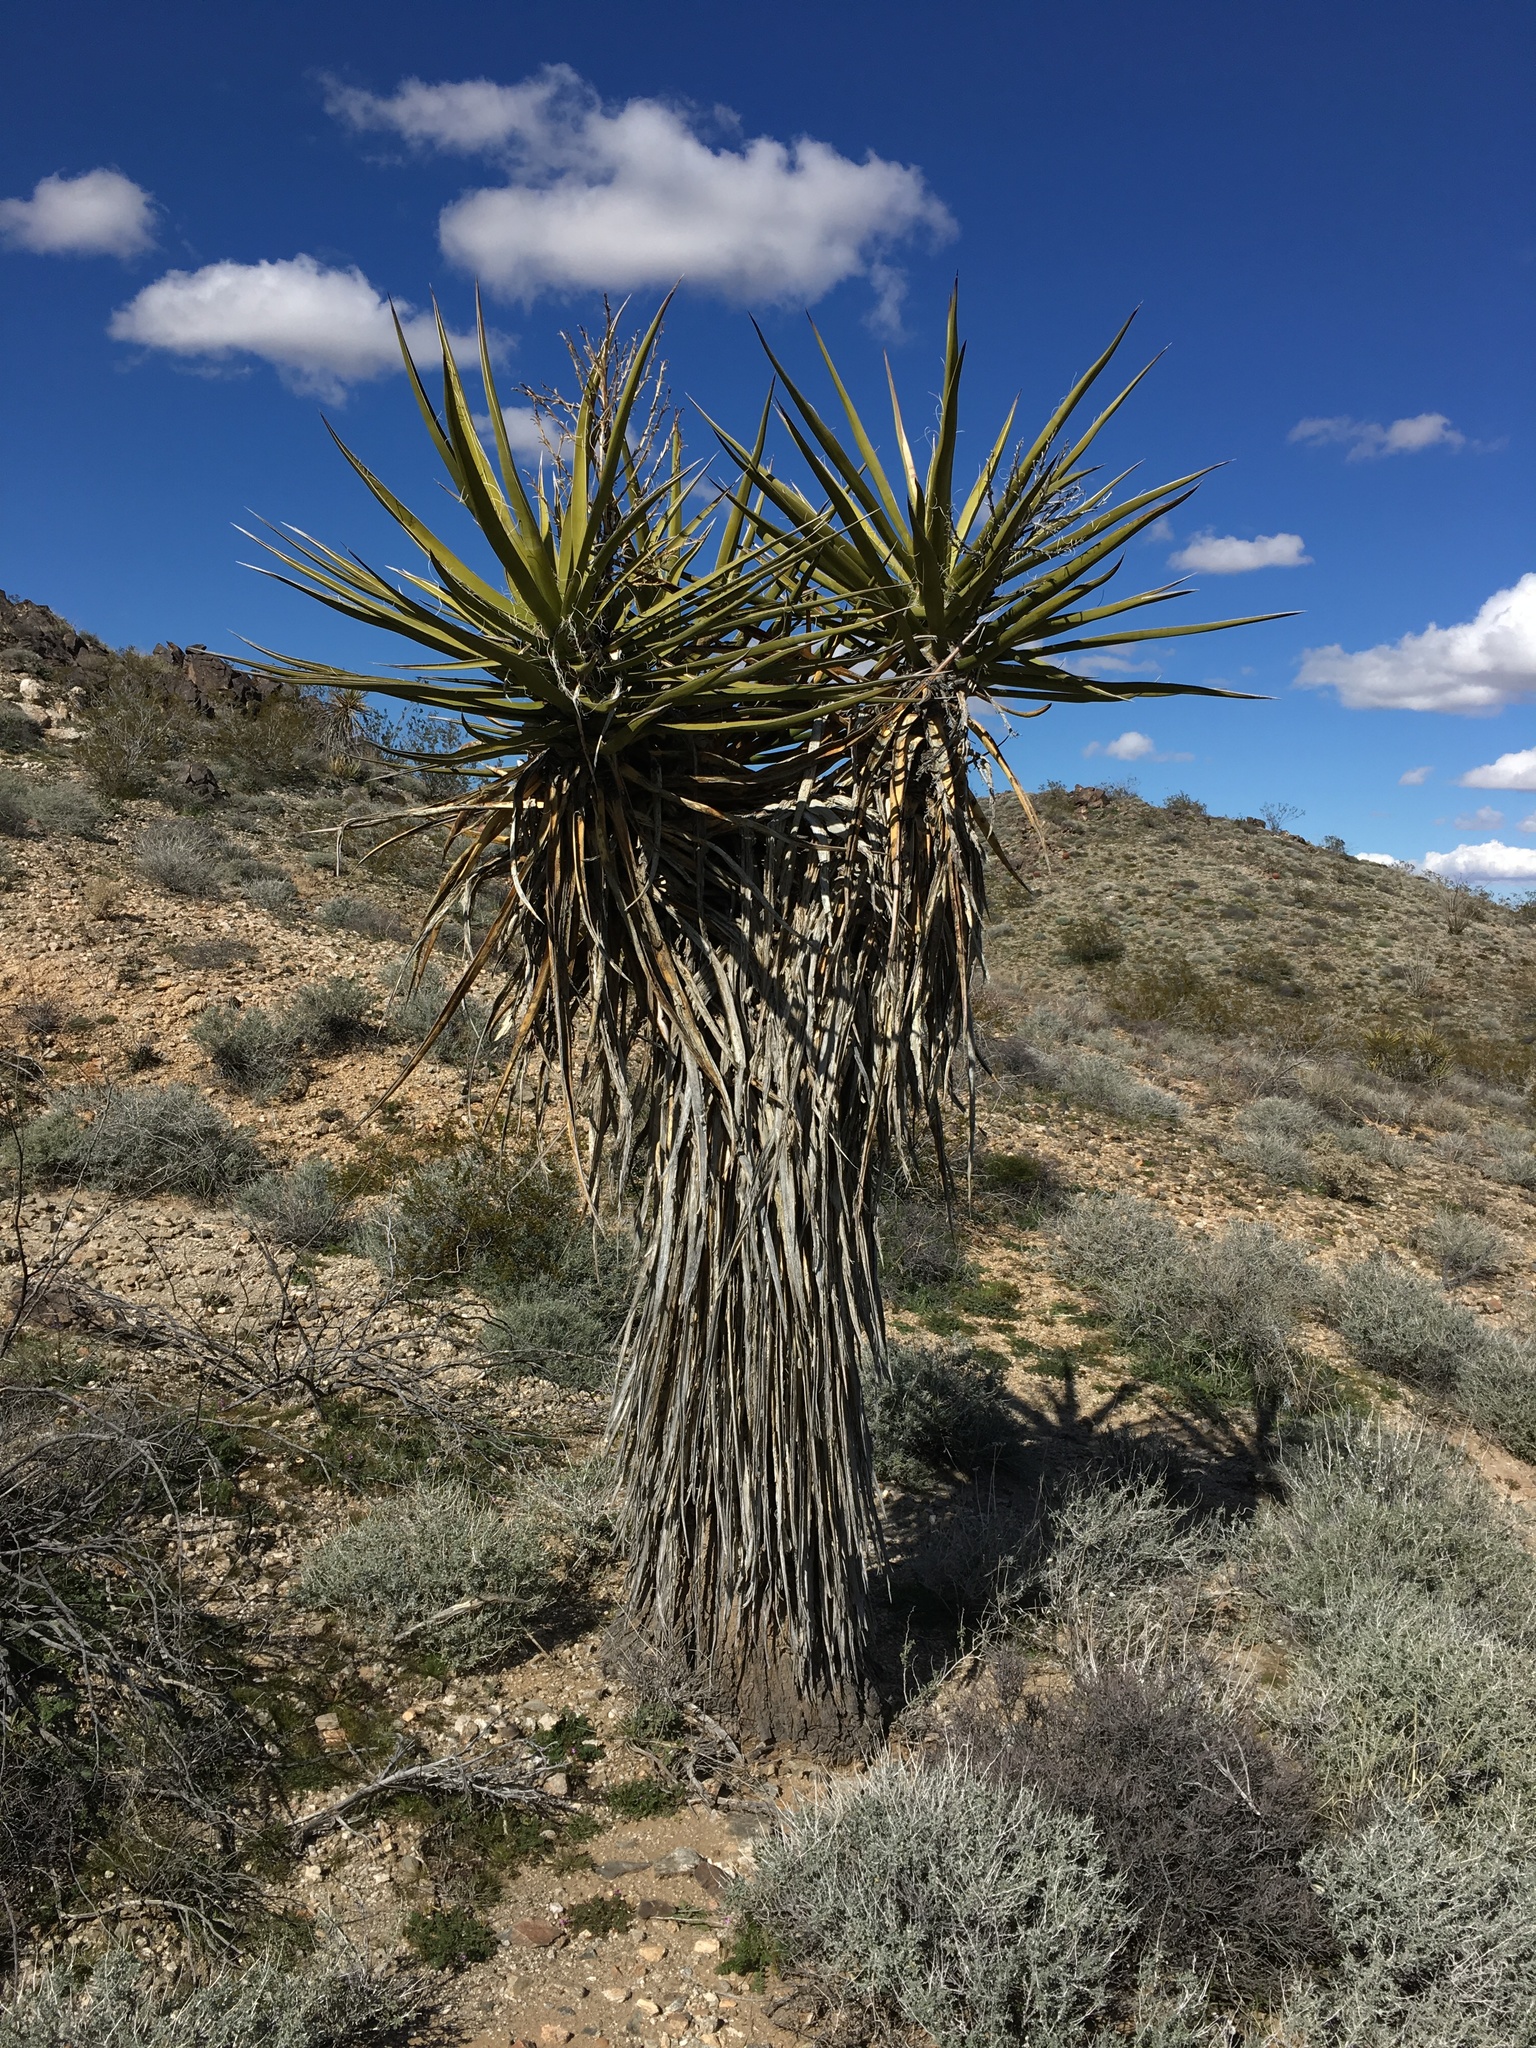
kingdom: Plantae
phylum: Tracheophyta
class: Liliopsida
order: Asparagales
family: Asparagaceae
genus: Yucca
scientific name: Yucca schidigera
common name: Mojave yucca
